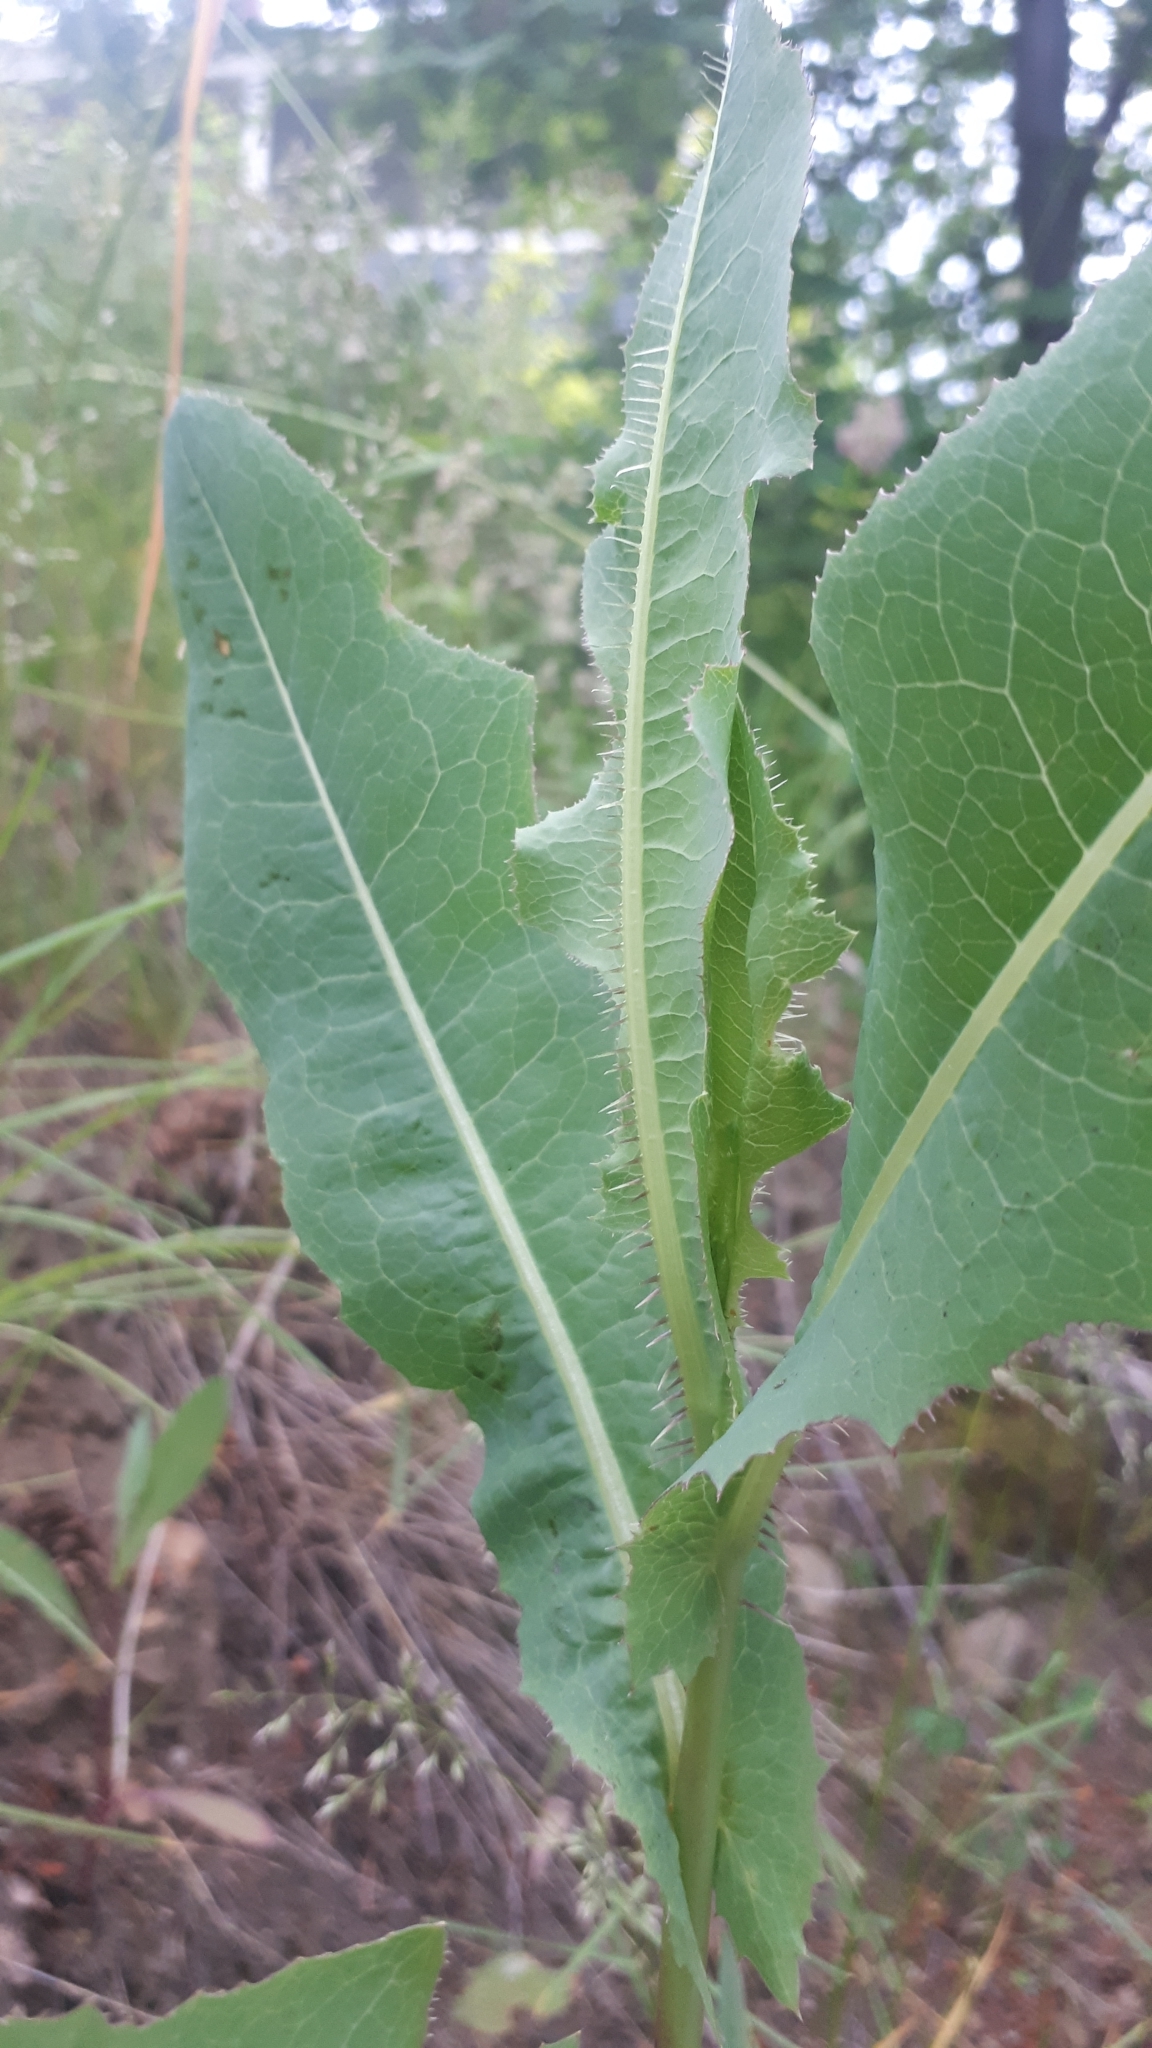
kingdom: Plantae
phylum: Tracheophyta
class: Magnoliopsida
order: Asterales
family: Asteraceae
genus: Lactuca
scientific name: Lactuca serriola
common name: Prickly lettuce
